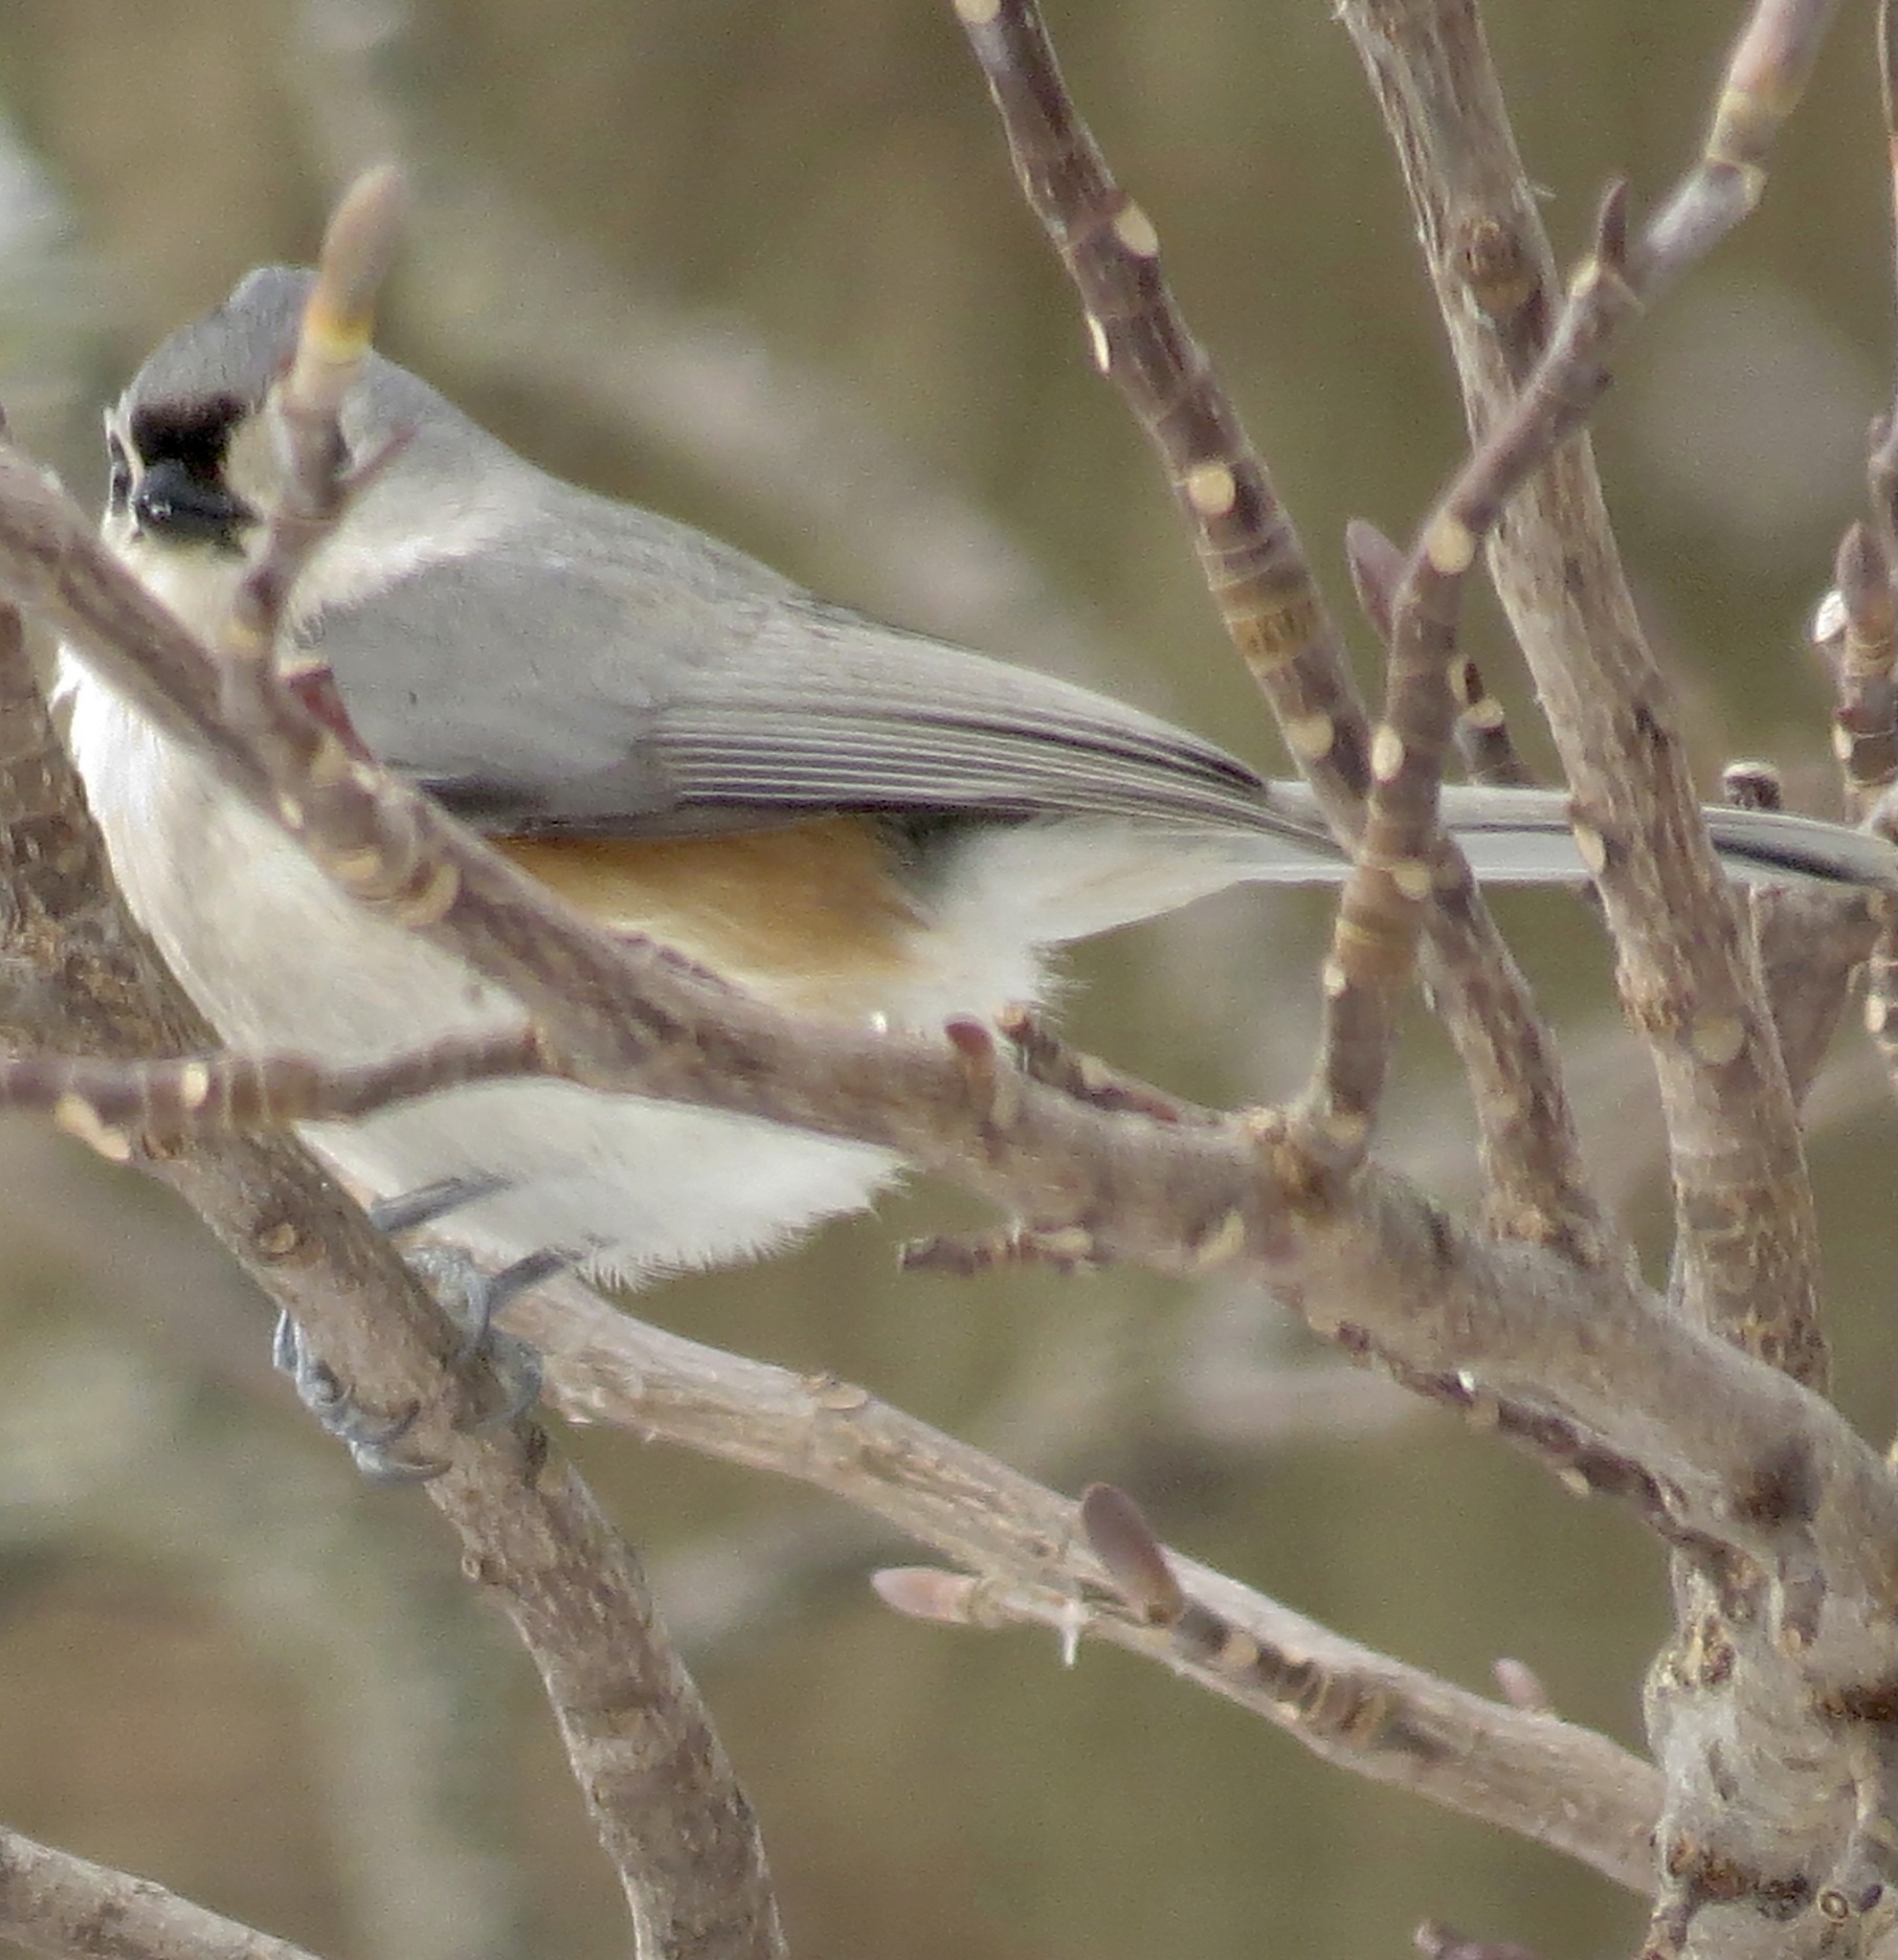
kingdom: Animalia
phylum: Chordata
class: Aves
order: Passeriformes
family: Paridae
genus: Baeolophus
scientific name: Baeolophus bicolor
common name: Tufted titmouse
